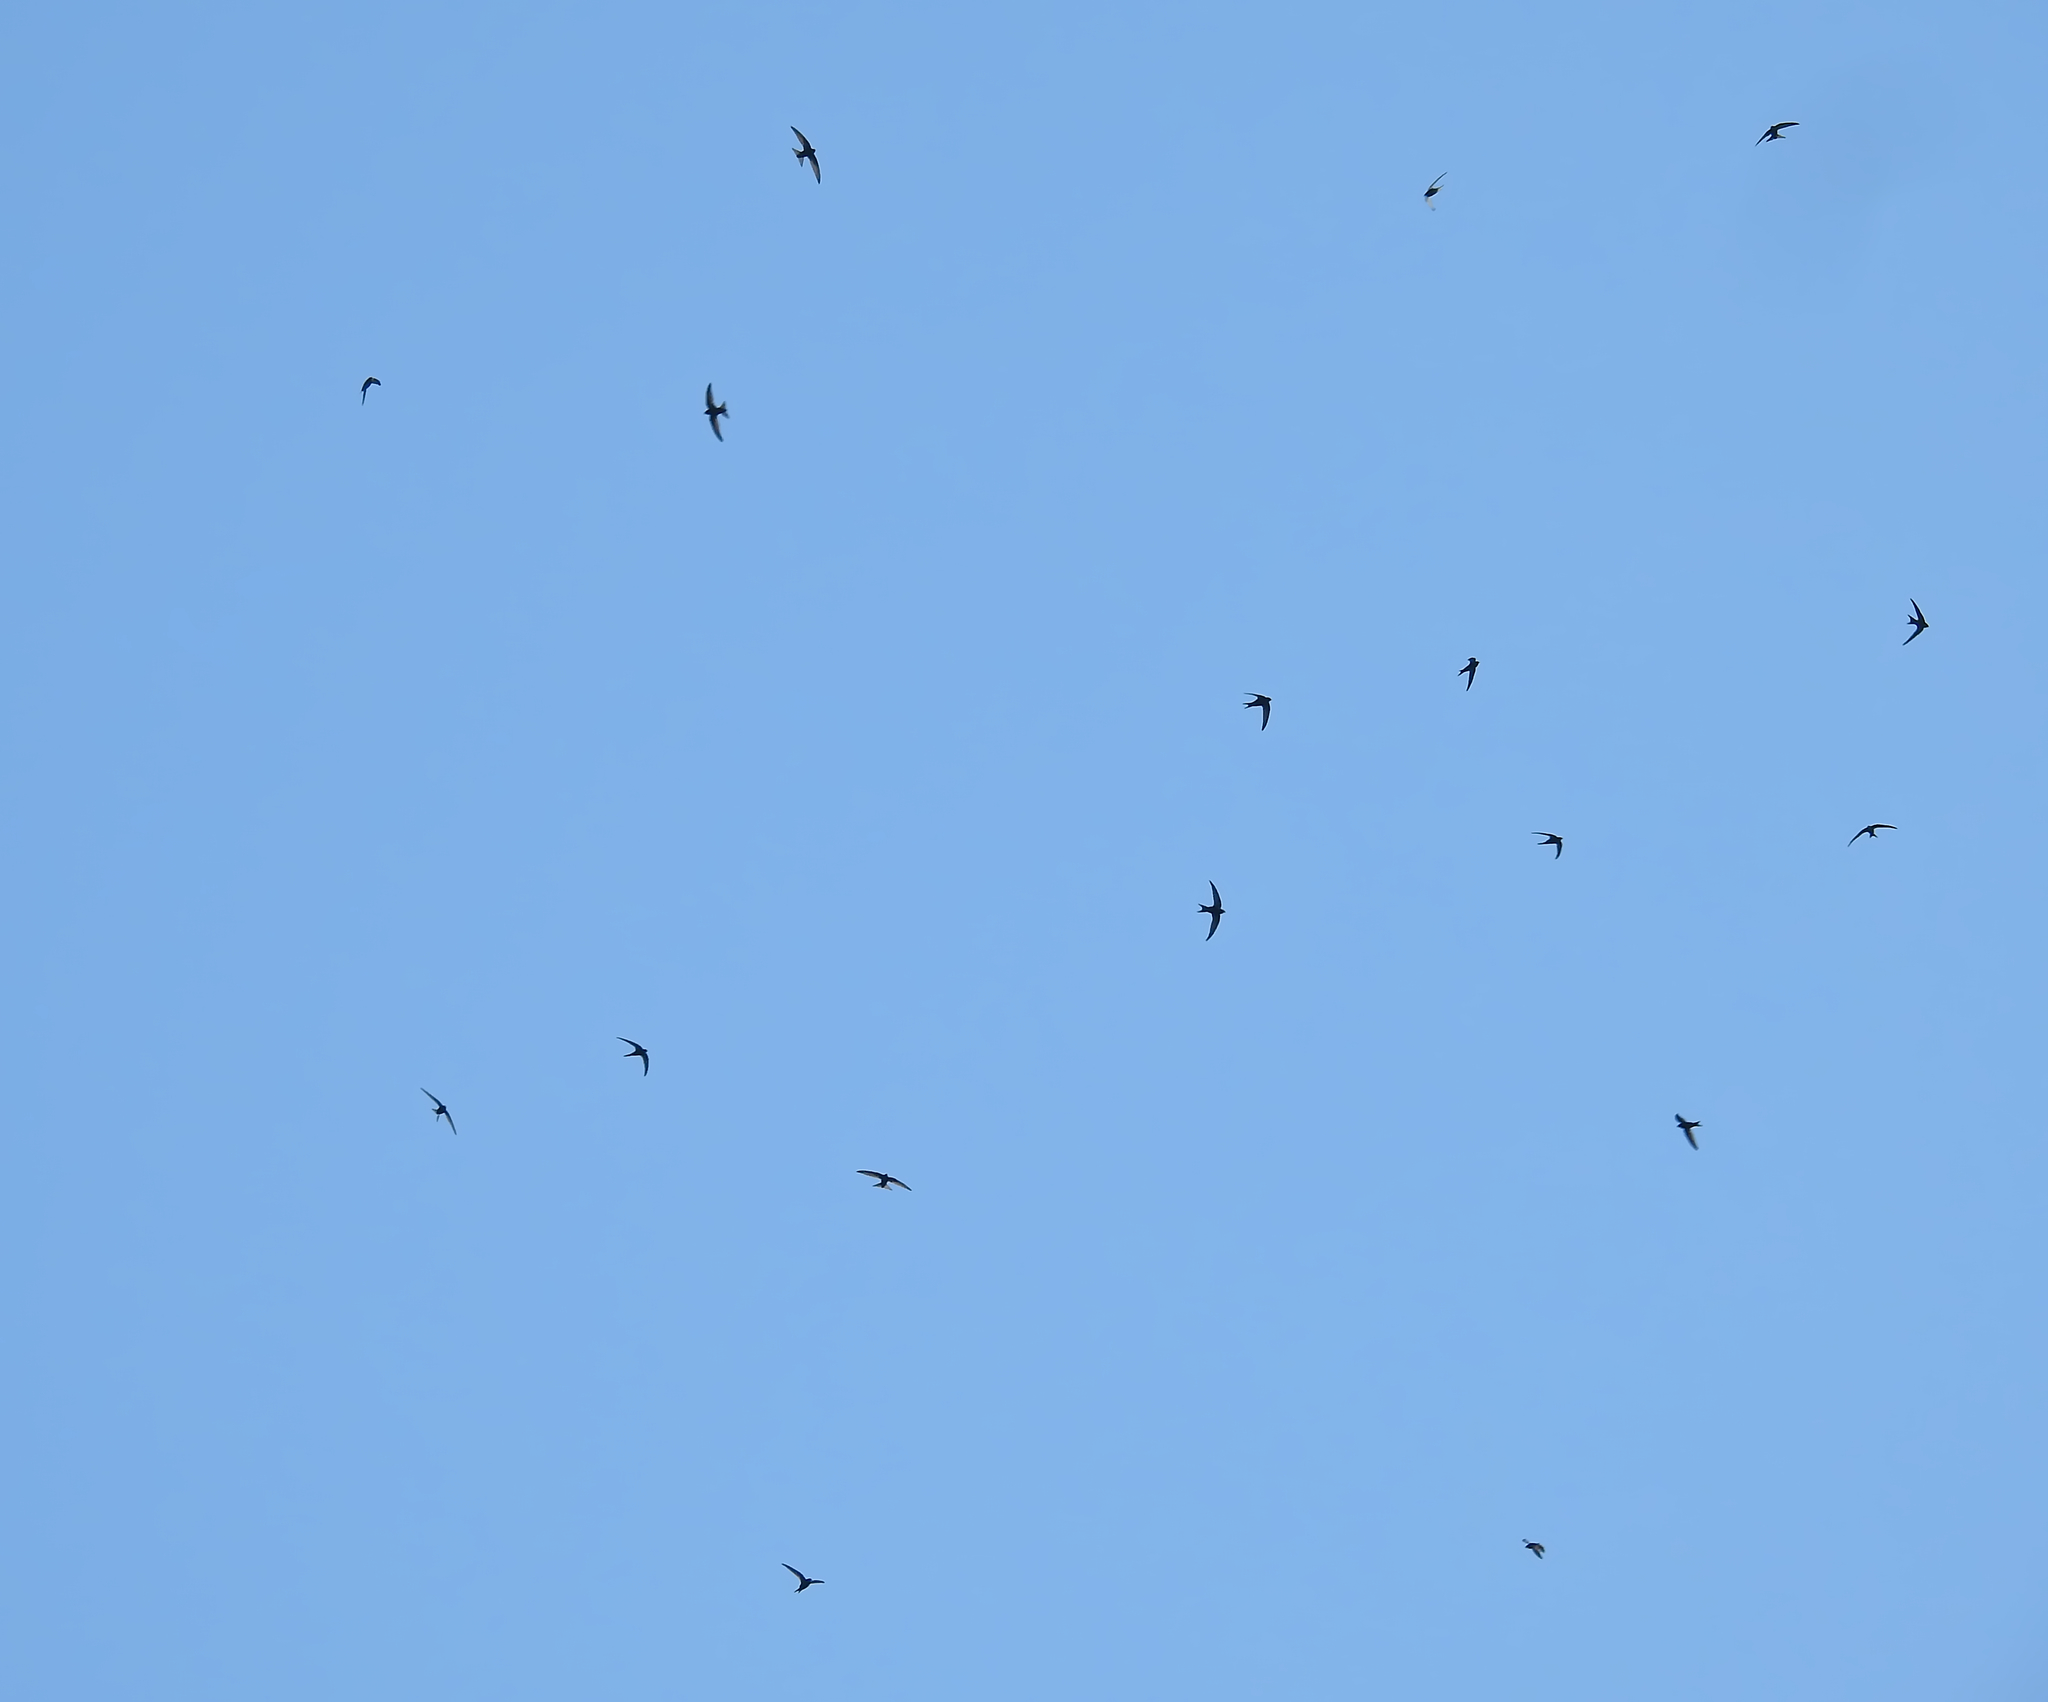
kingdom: Animalia
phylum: Chordata
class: Aves
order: Apodiformes
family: Apodidae
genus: Apus
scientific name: Apus apus
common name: Common swift
